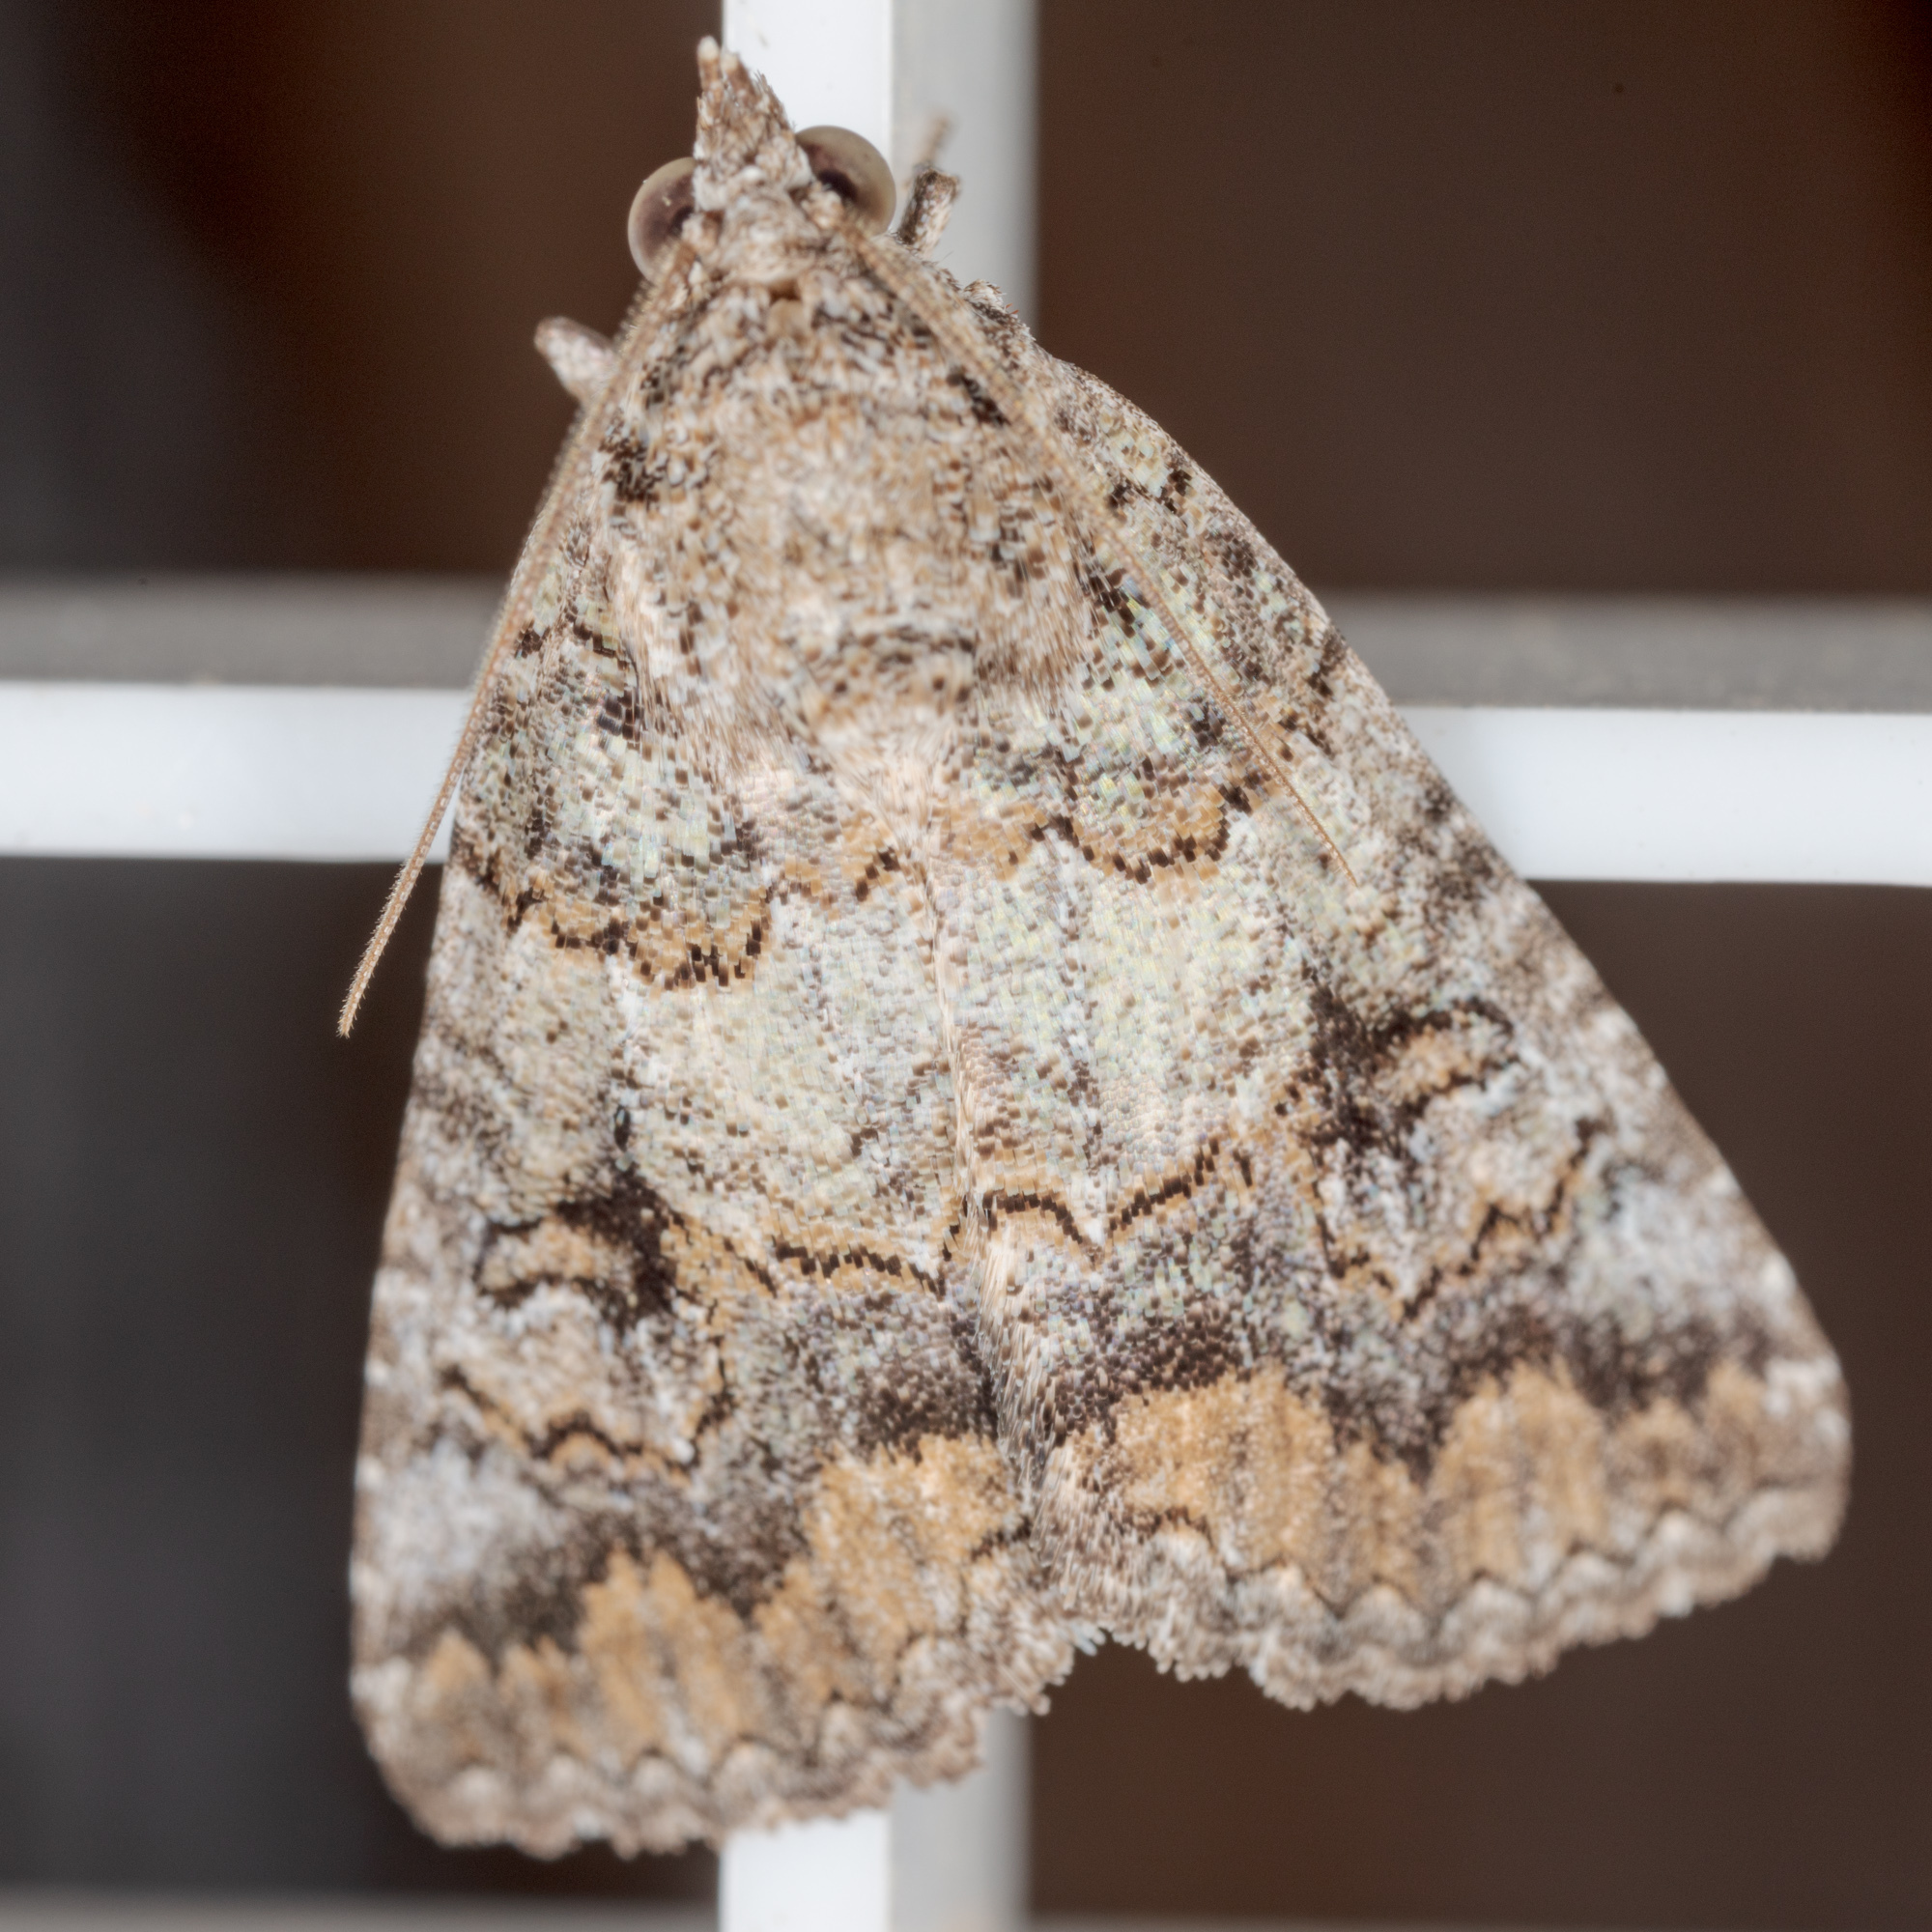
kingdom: Animalia
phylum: Arthropoda
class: Insecta
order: Lepidoptera
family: Erebidae
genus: Eubolina
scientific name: Eubolina impartialis
